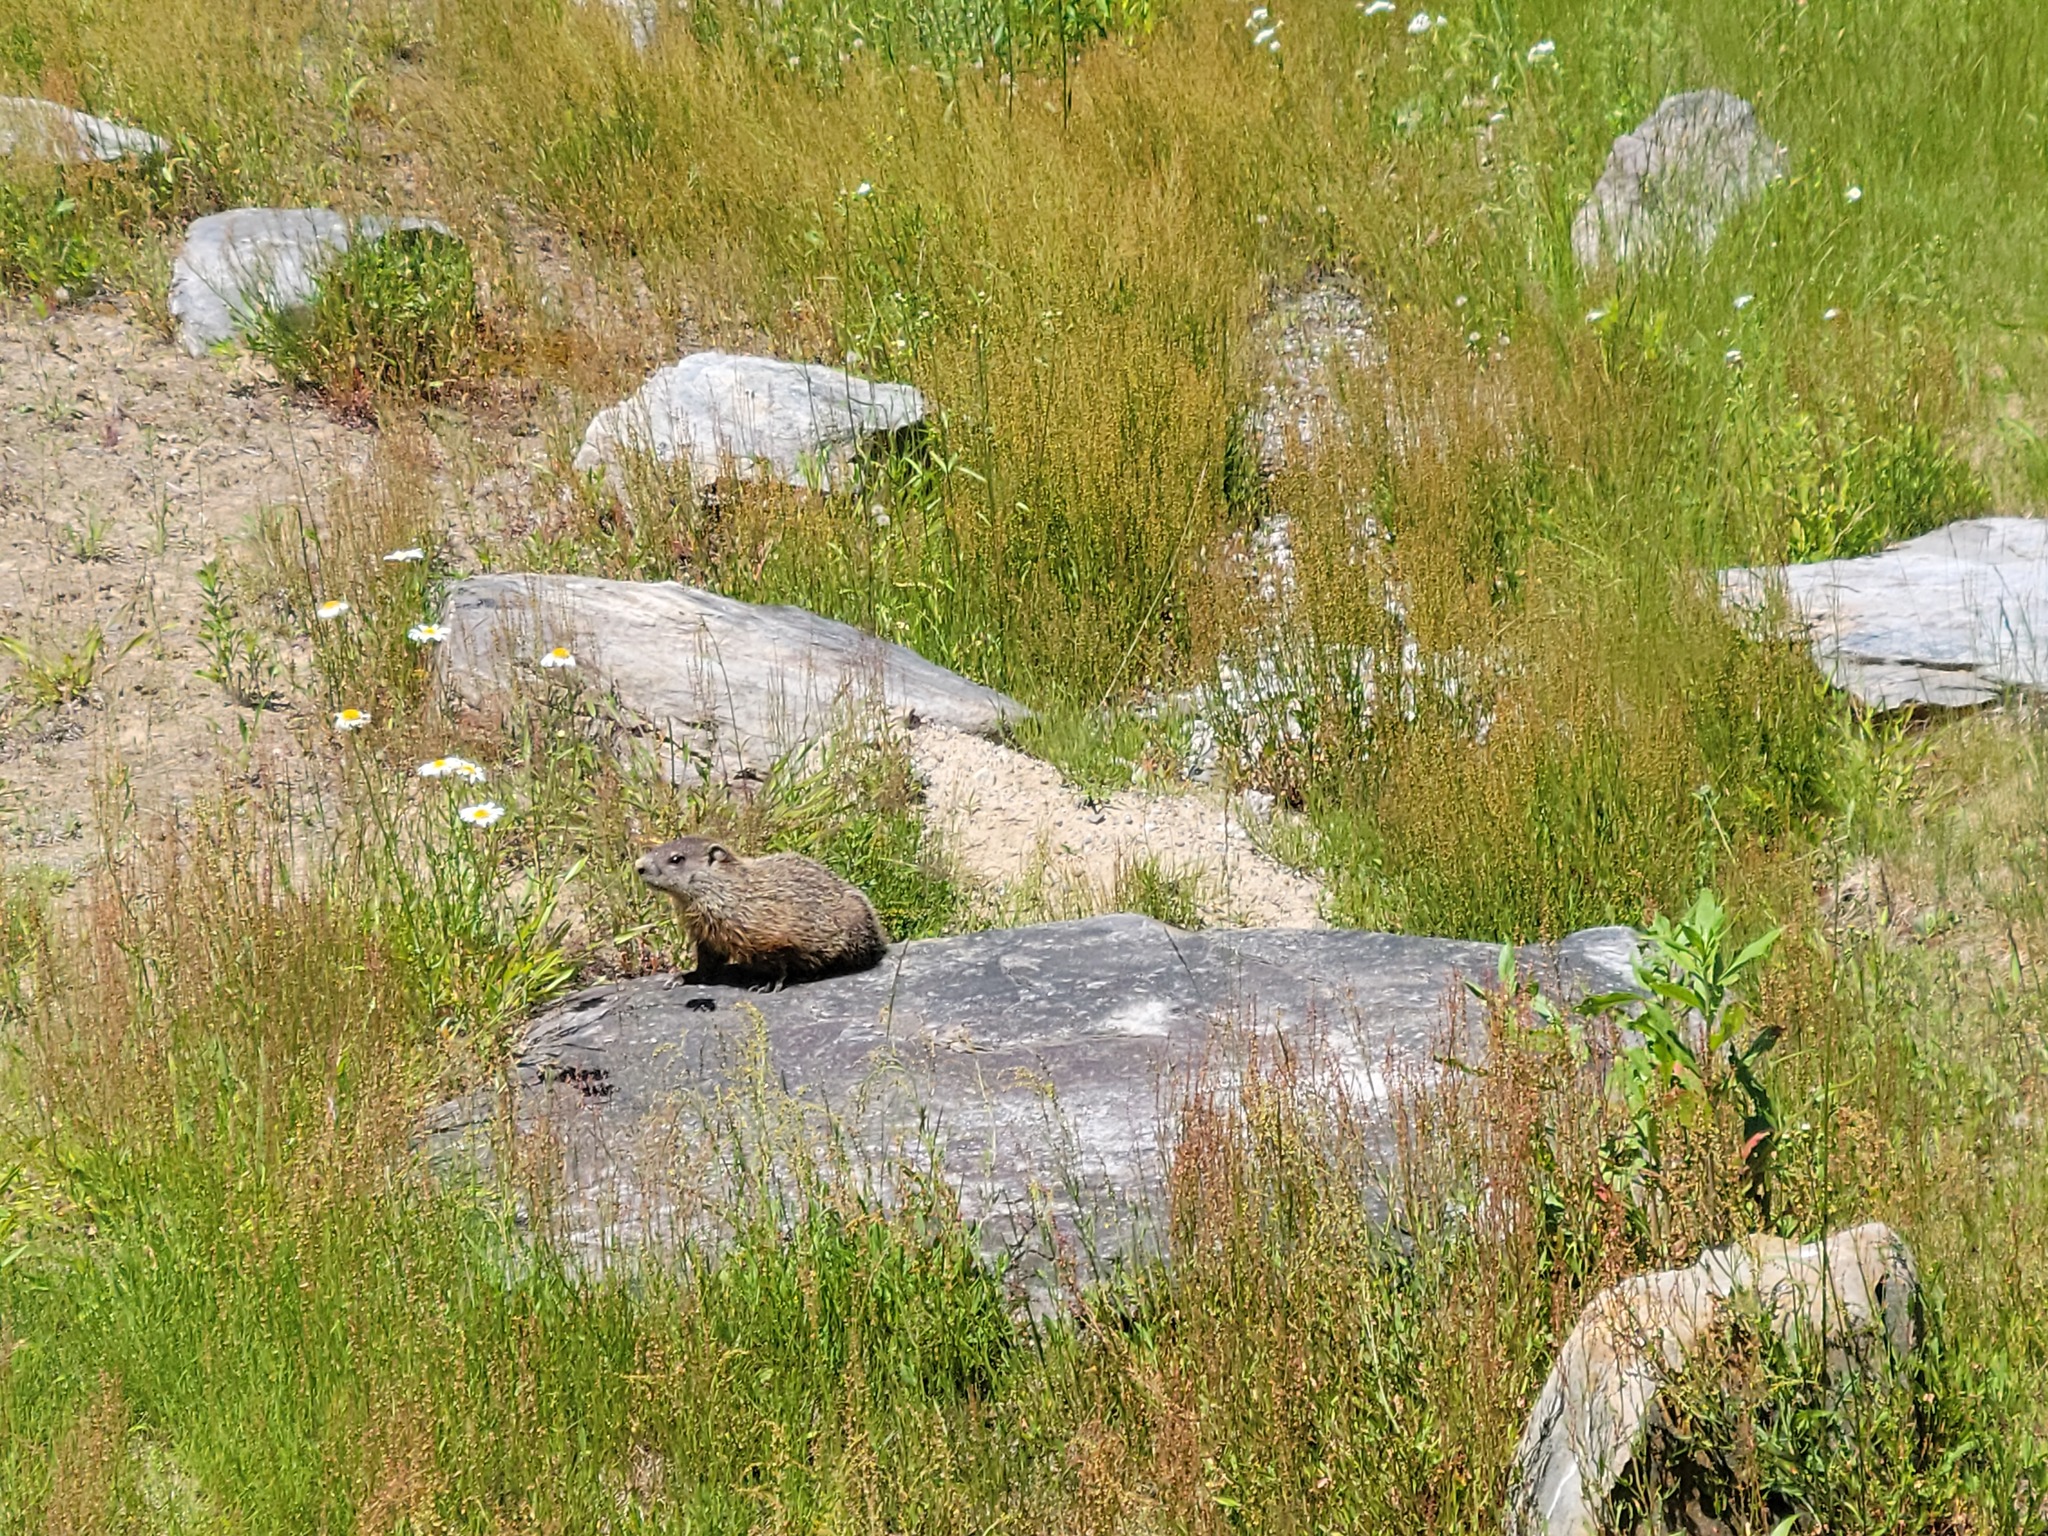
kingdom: Animalia
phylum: Chordata
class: Mammalia
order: Rodentia
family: Sciuridae
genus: Marmota
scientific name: Marmota monax
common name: Groundhog
